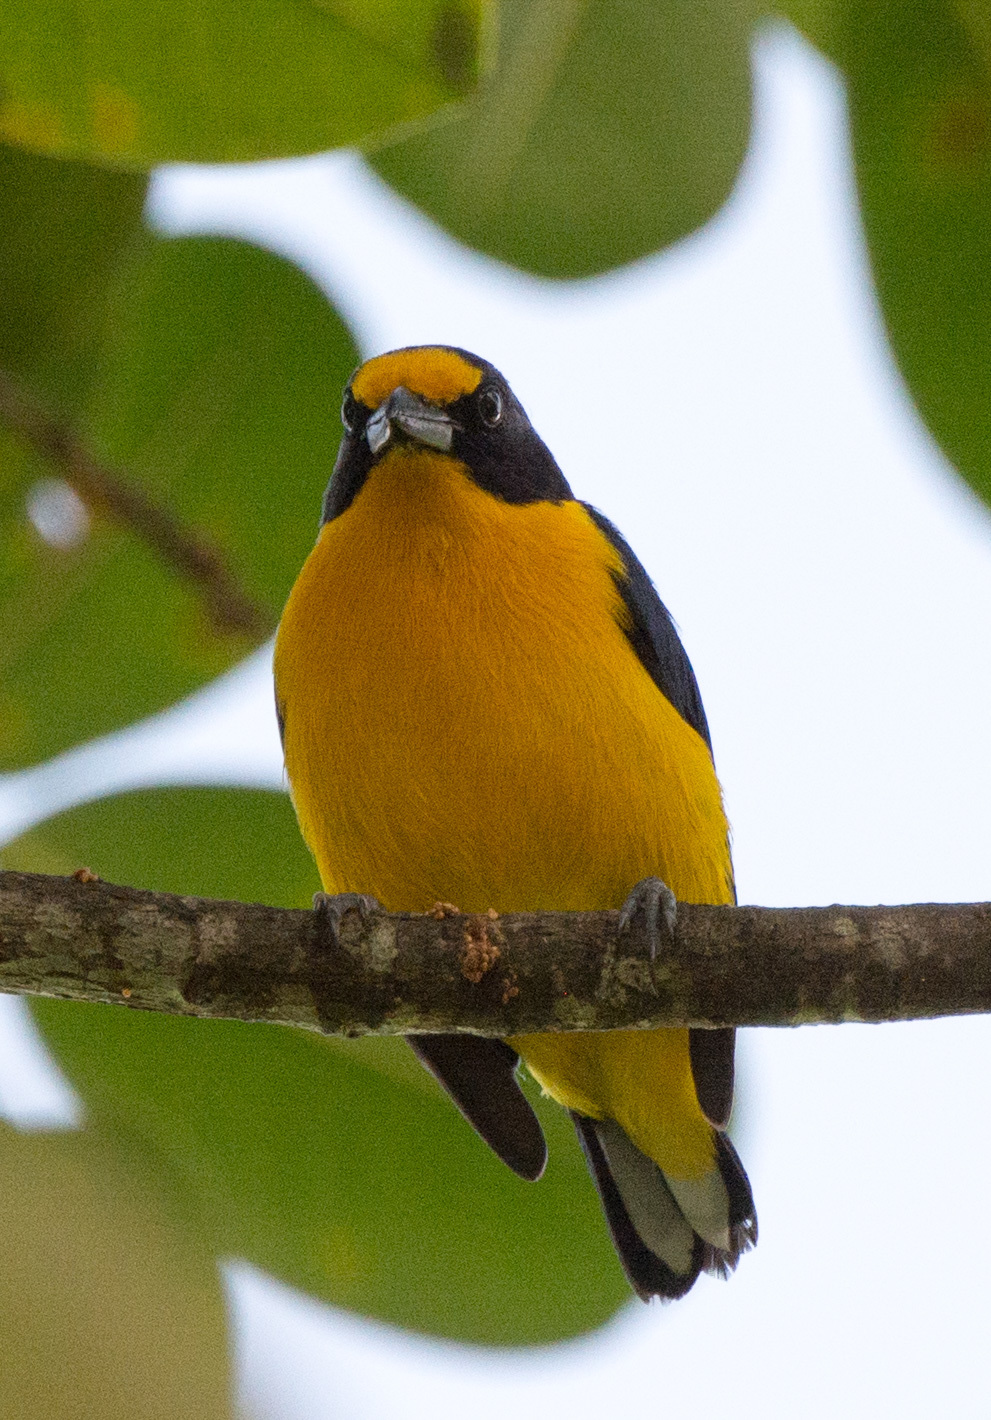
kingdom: Animalia
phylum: Chordata
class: Aves
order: Passeriformes
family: Fringillidae
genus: Euphonia
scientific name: Euphonia violacea
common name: Violaceous euphonia
